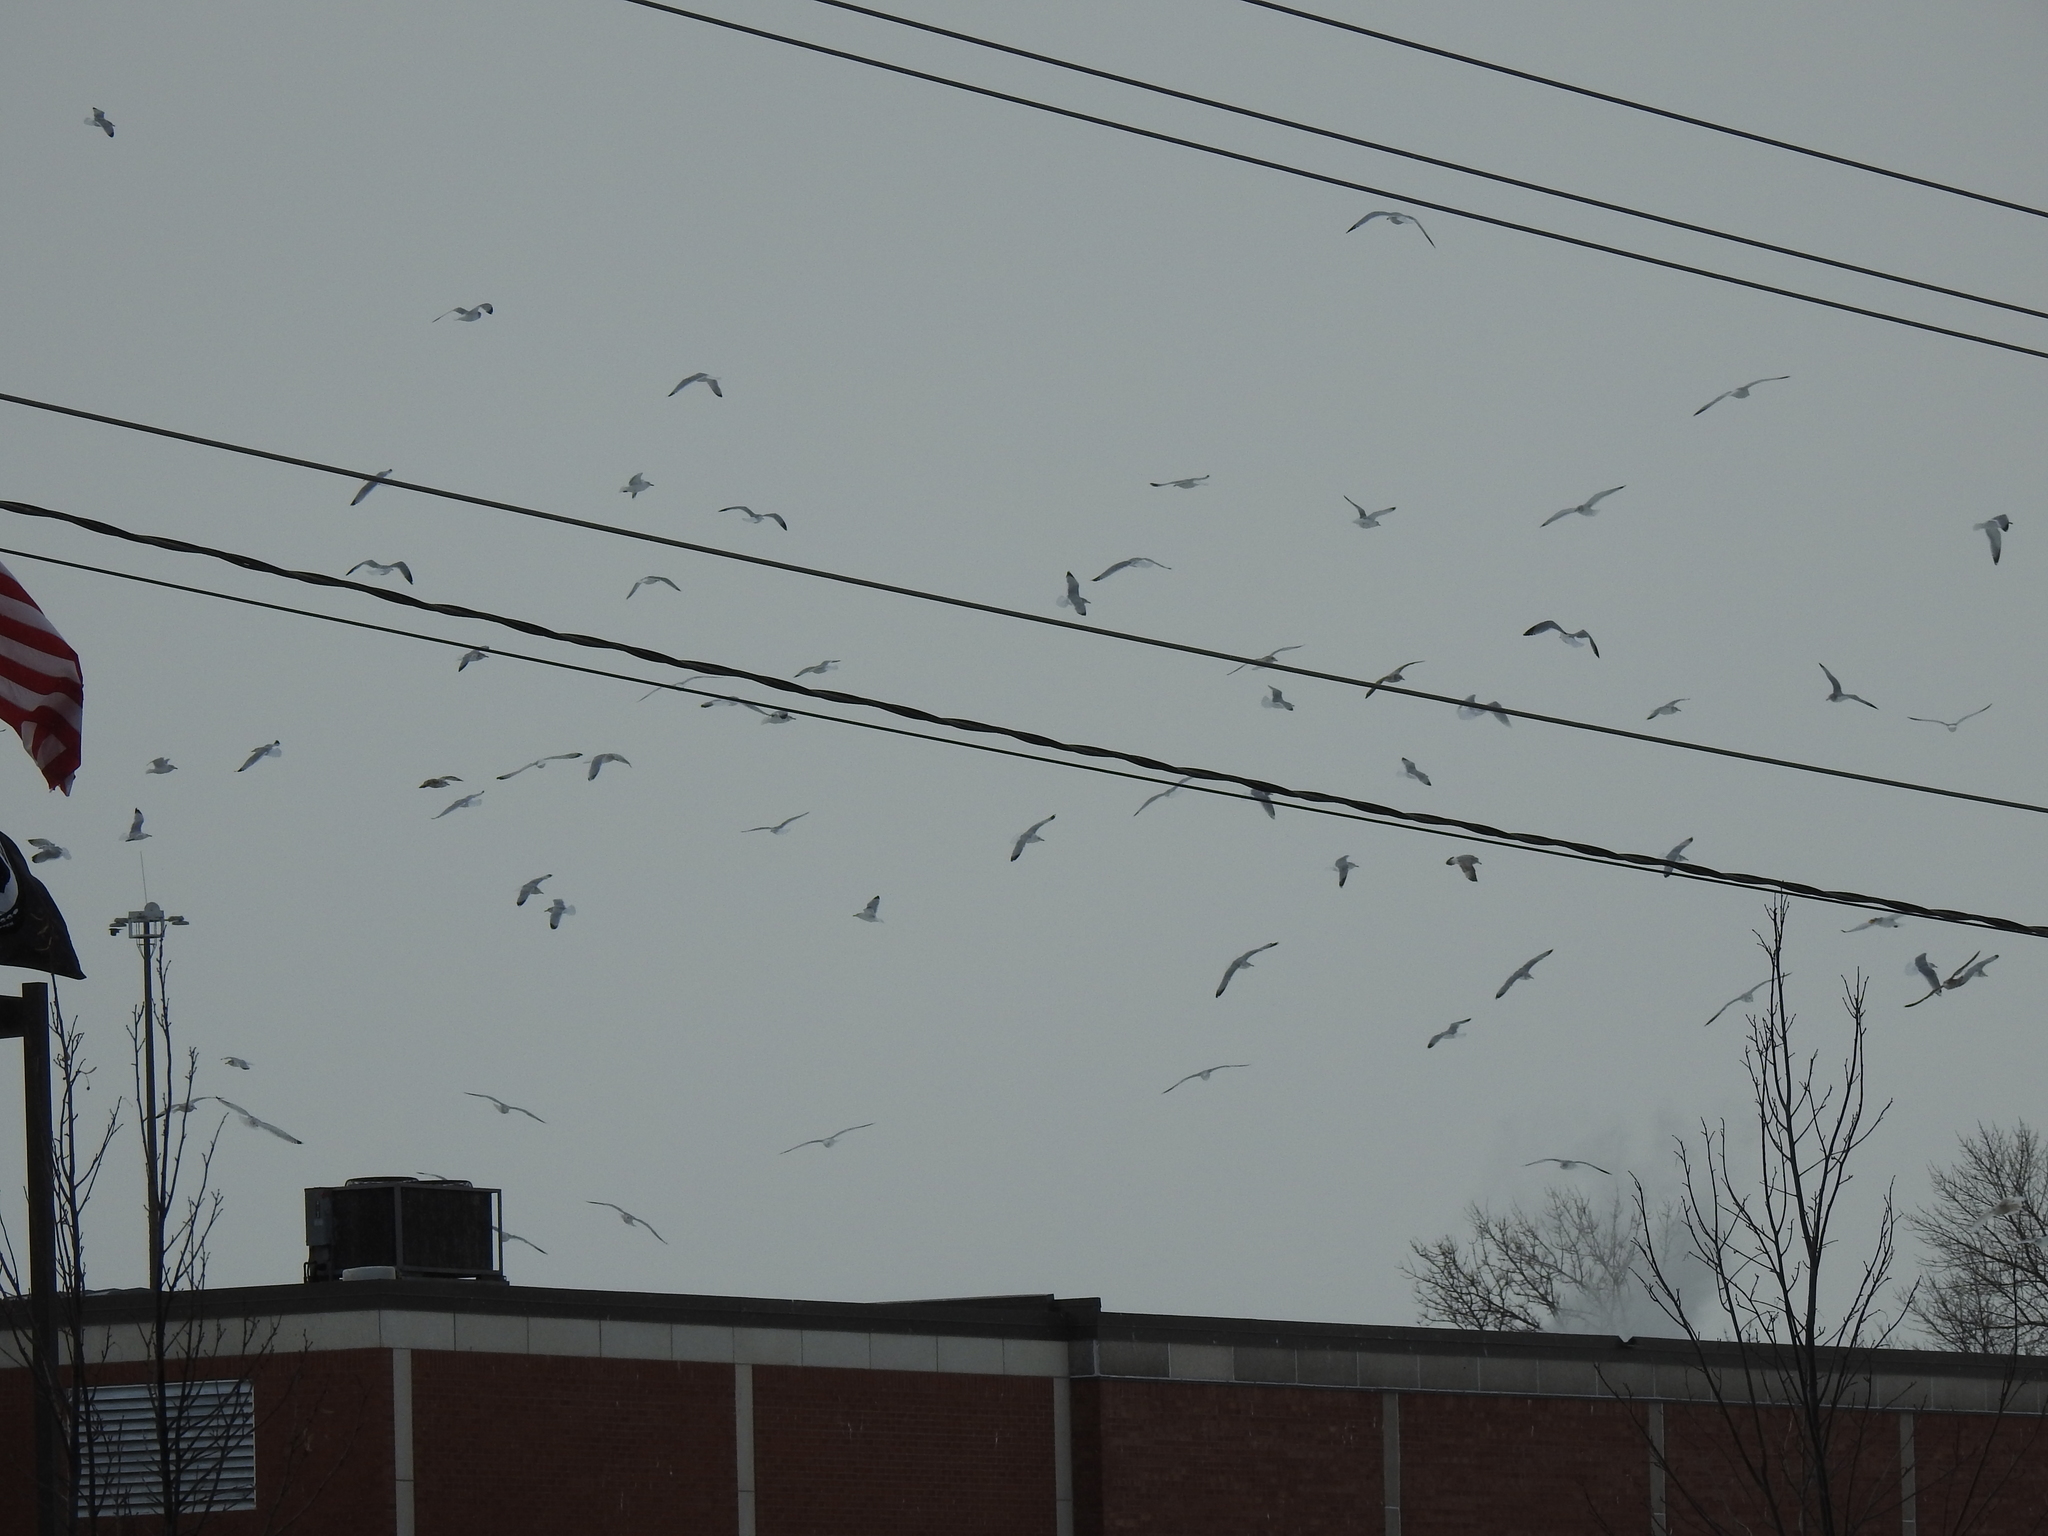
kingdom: Animalia
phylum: Chordata
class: Aves
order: Charadriiformes
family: Laridae
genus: Larus
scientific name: Larus argentatus
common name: Herring gull
